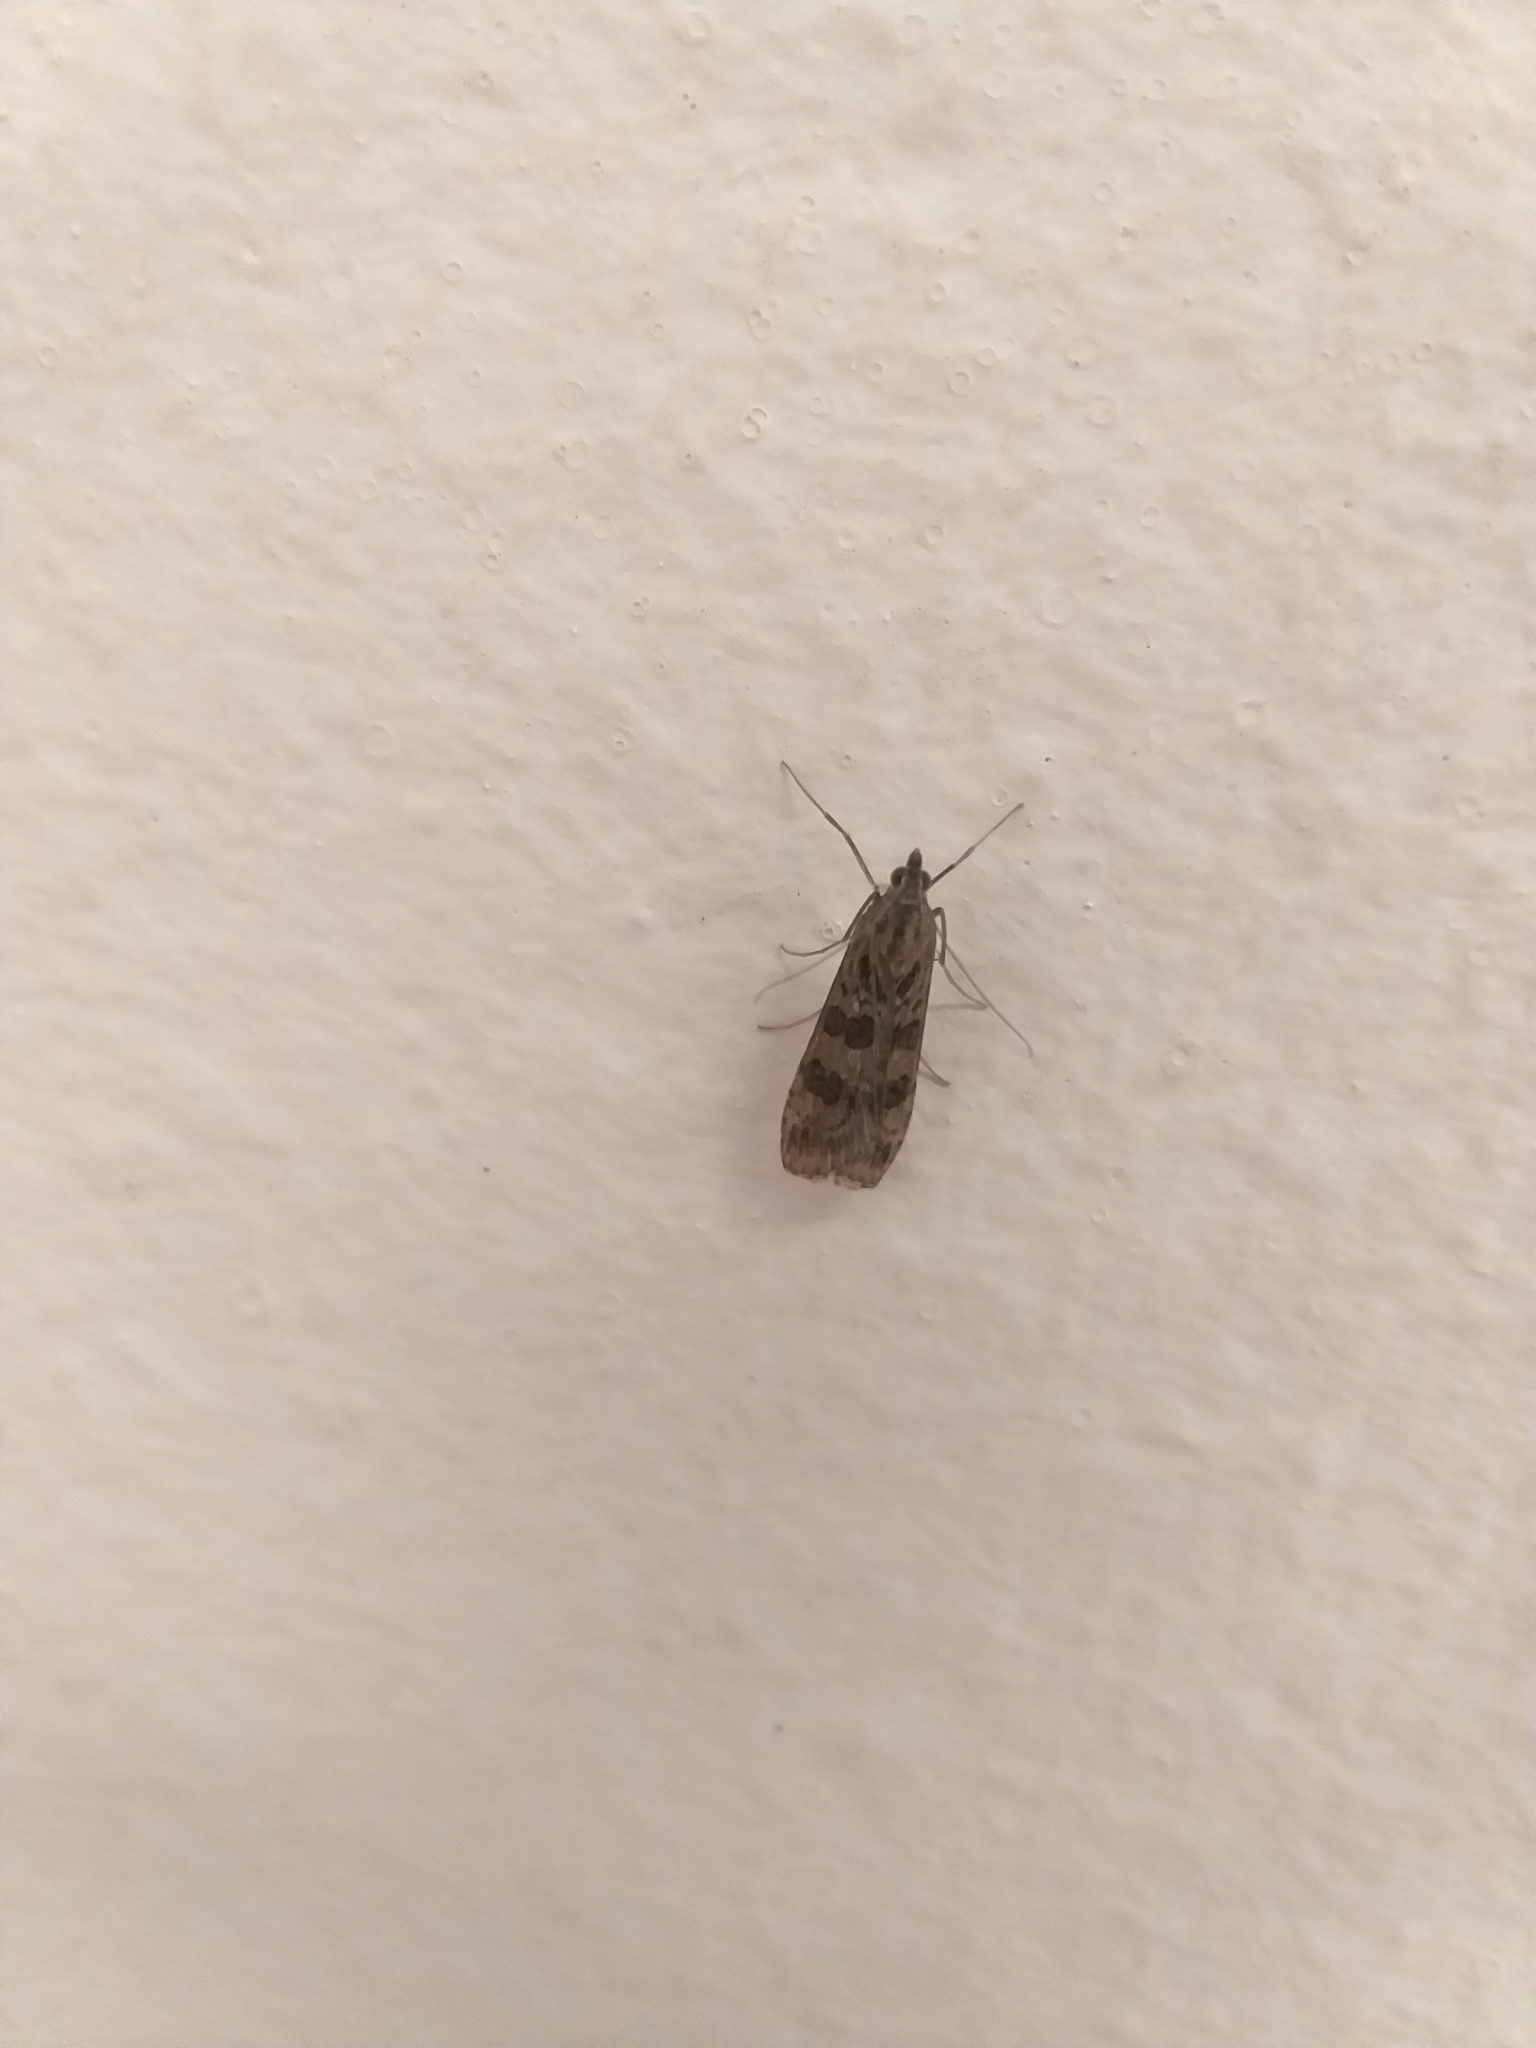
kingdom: Animalia
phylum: Arthropoda
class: Insecta
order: Lepidoptera
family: Crambidae
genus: Nomophila
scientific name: Nomophila noctuella
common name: Rush veneer
